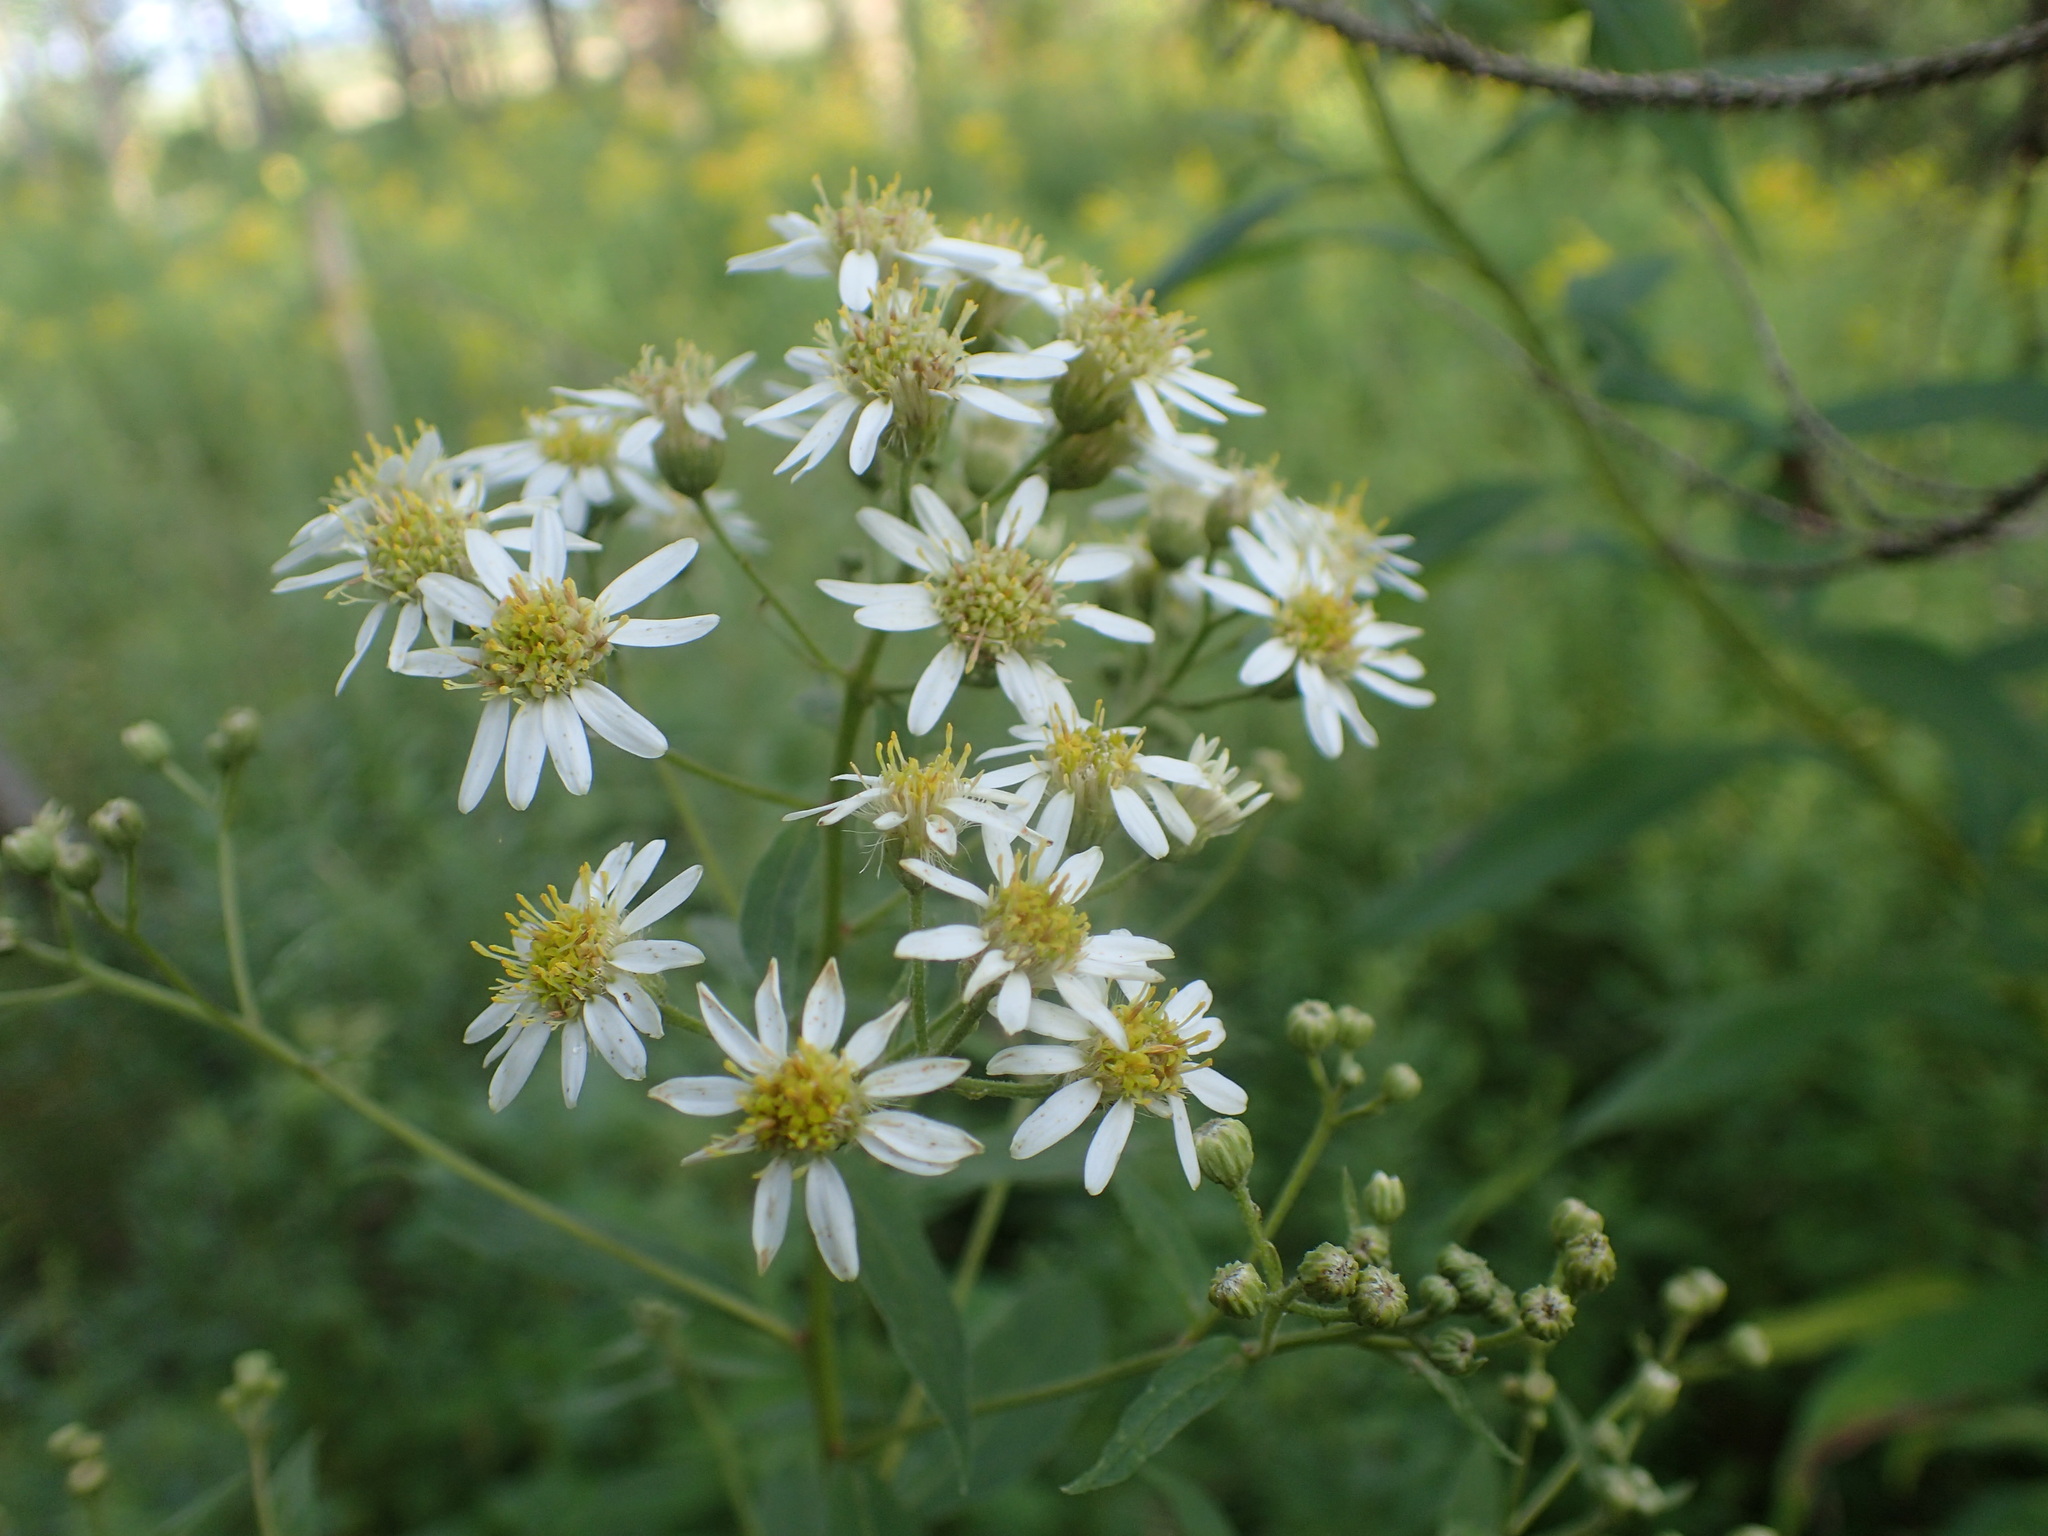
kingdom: Plantae
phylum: Tracheophyta
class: Magnoliopsida
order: Asterales
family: Asteraceae
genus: Doellingeria
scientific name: Doellingeria umbellata
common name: Flat-top white aster
